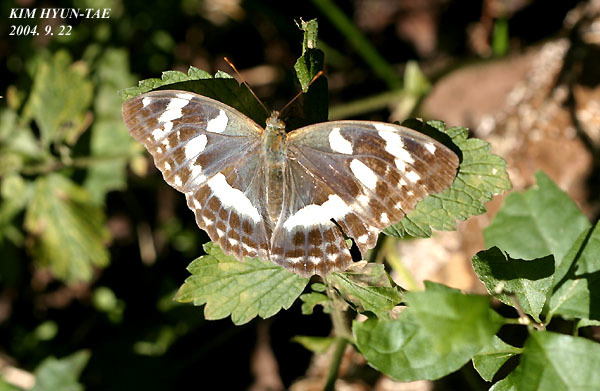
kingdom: Animalia
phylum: Arthropoda
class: Insecta
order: Lepidoptera
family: Nymphalidae
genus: Damora
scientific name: Damora sagana
